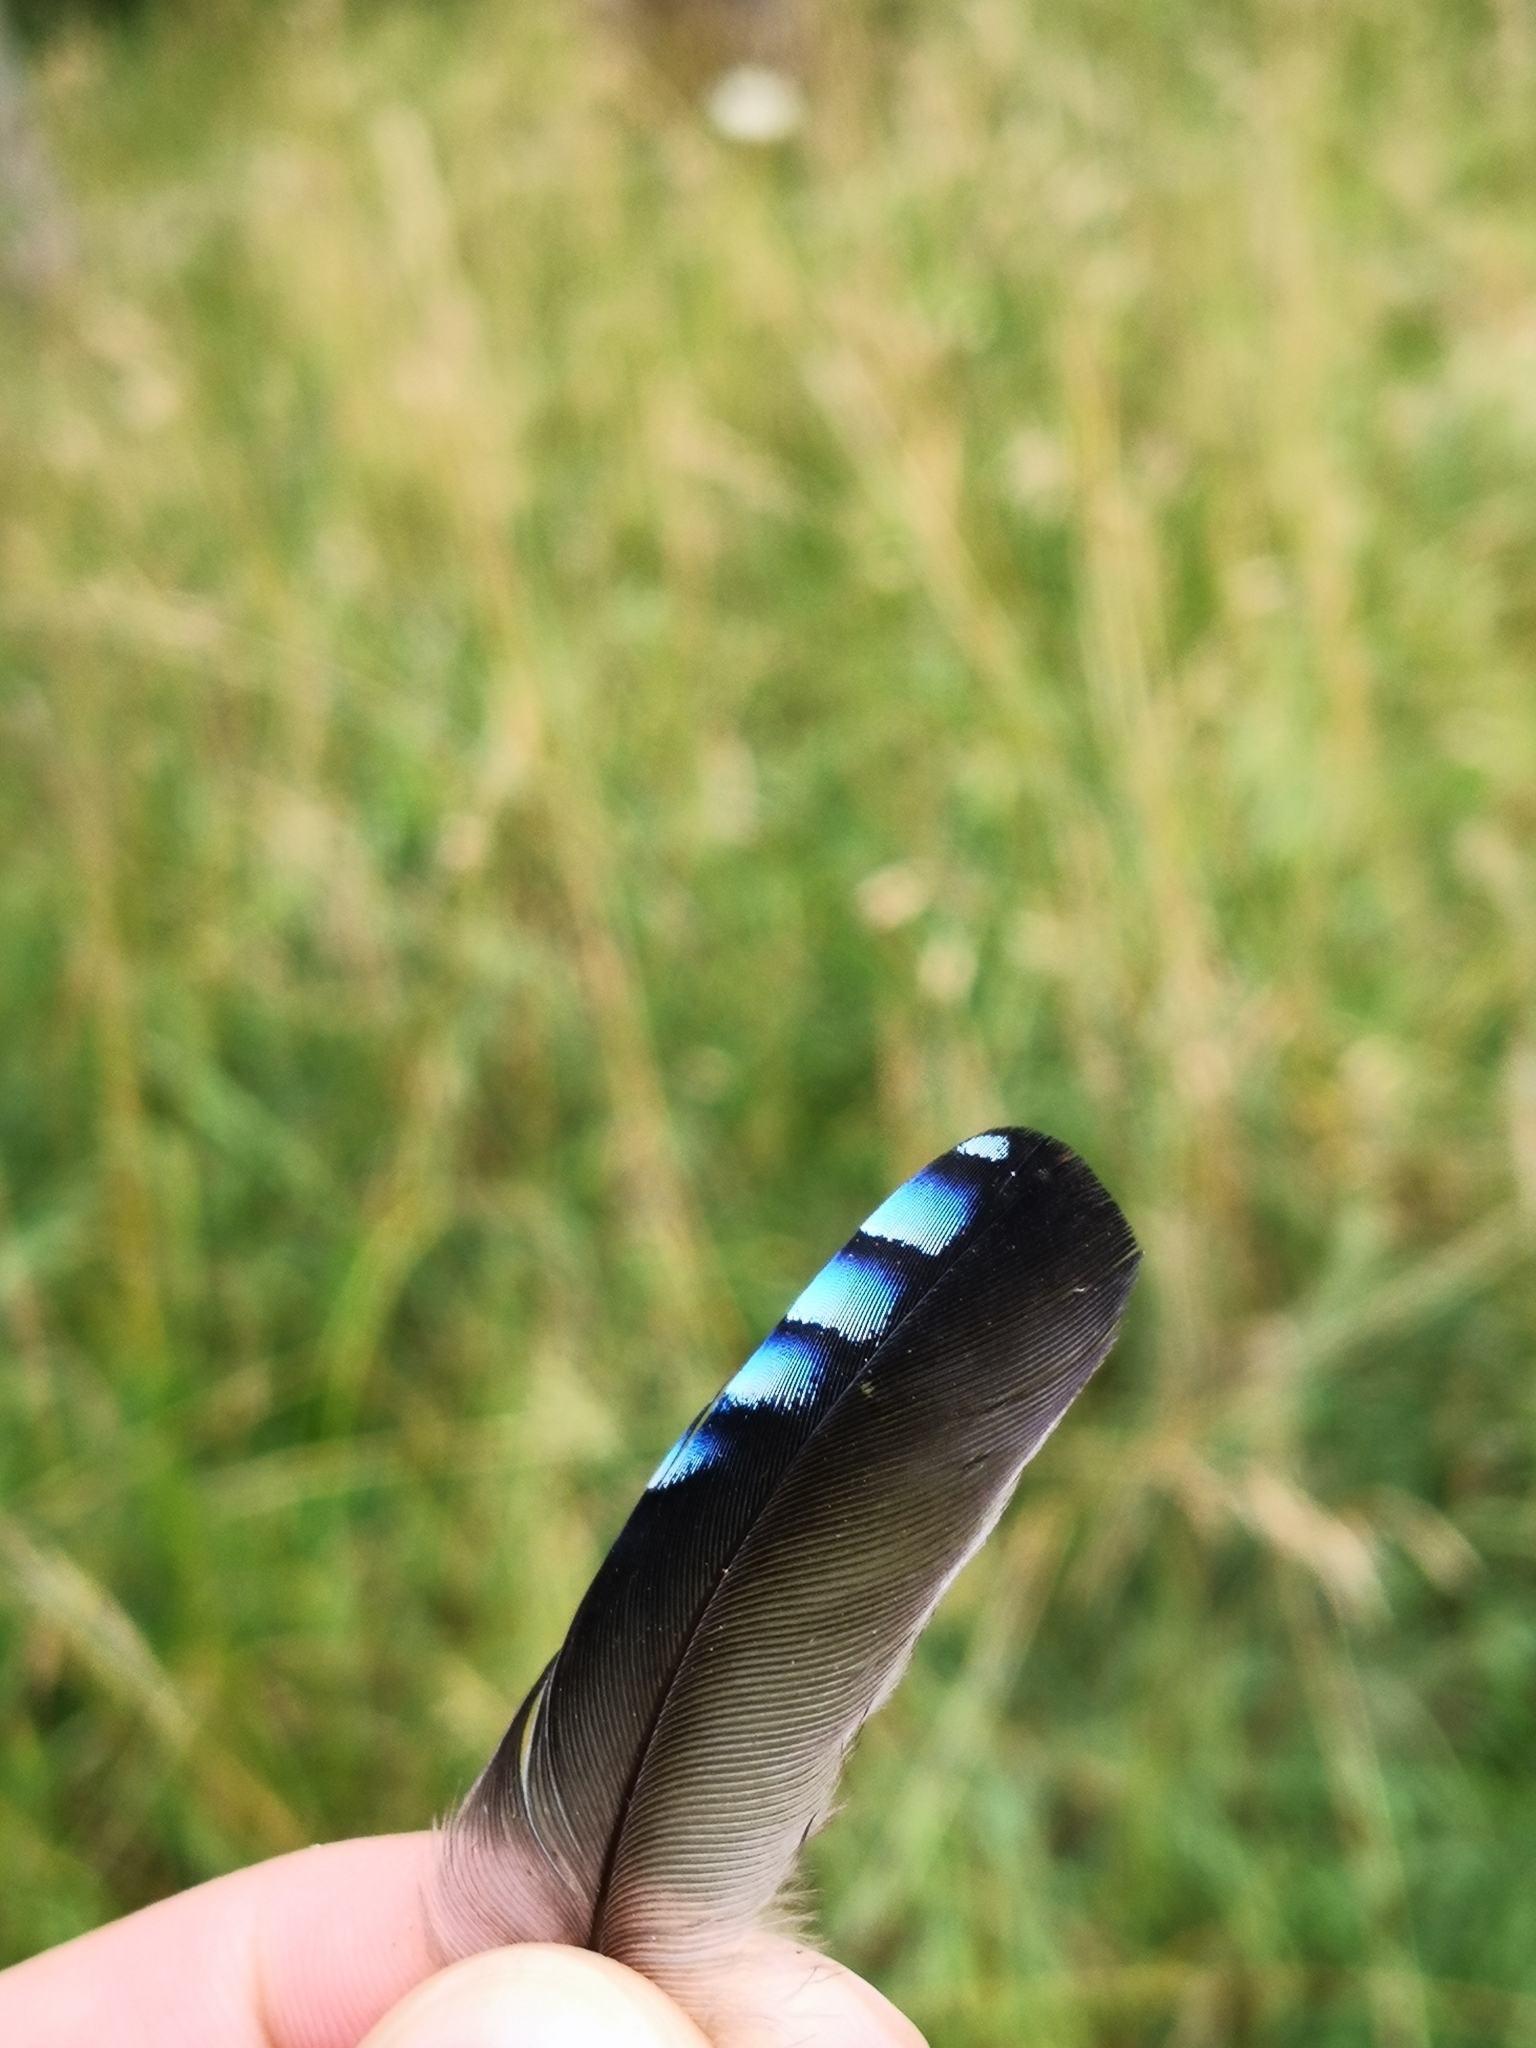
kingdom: Animalia
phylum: Chordata
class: Aves
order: Passeriformes
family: Corvidae
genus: Garrulus
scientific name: Garrulus glandarius
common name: Eurasian jay
